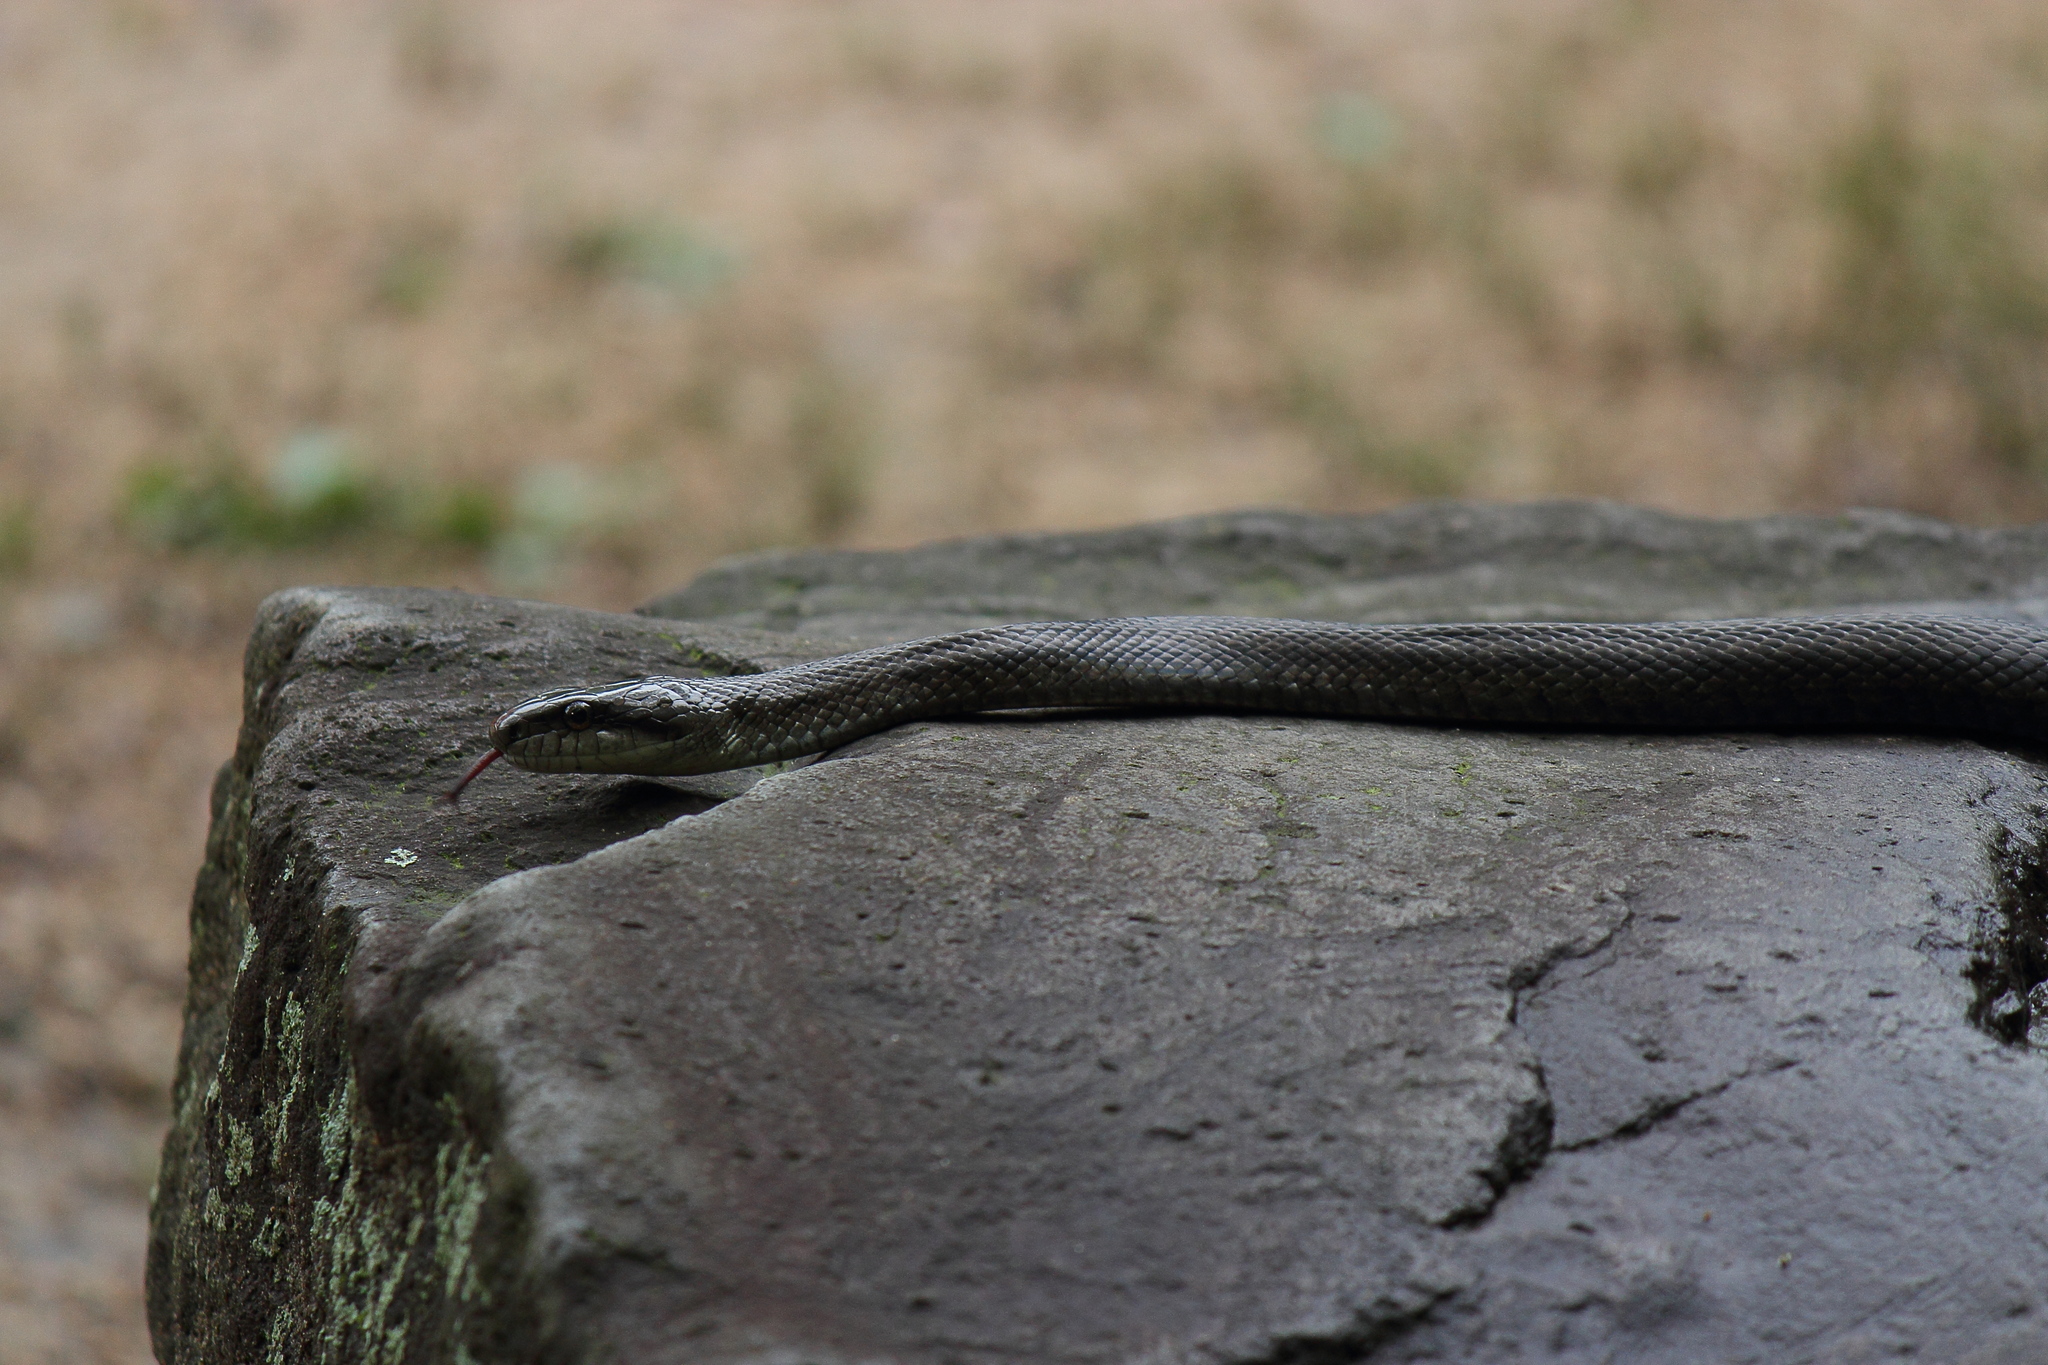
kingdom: Animalia
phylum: Chordata
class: Squamata
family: Colubridae
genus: Elaphe
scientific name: Elaphe climacophora
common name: Japanese ratsnake
